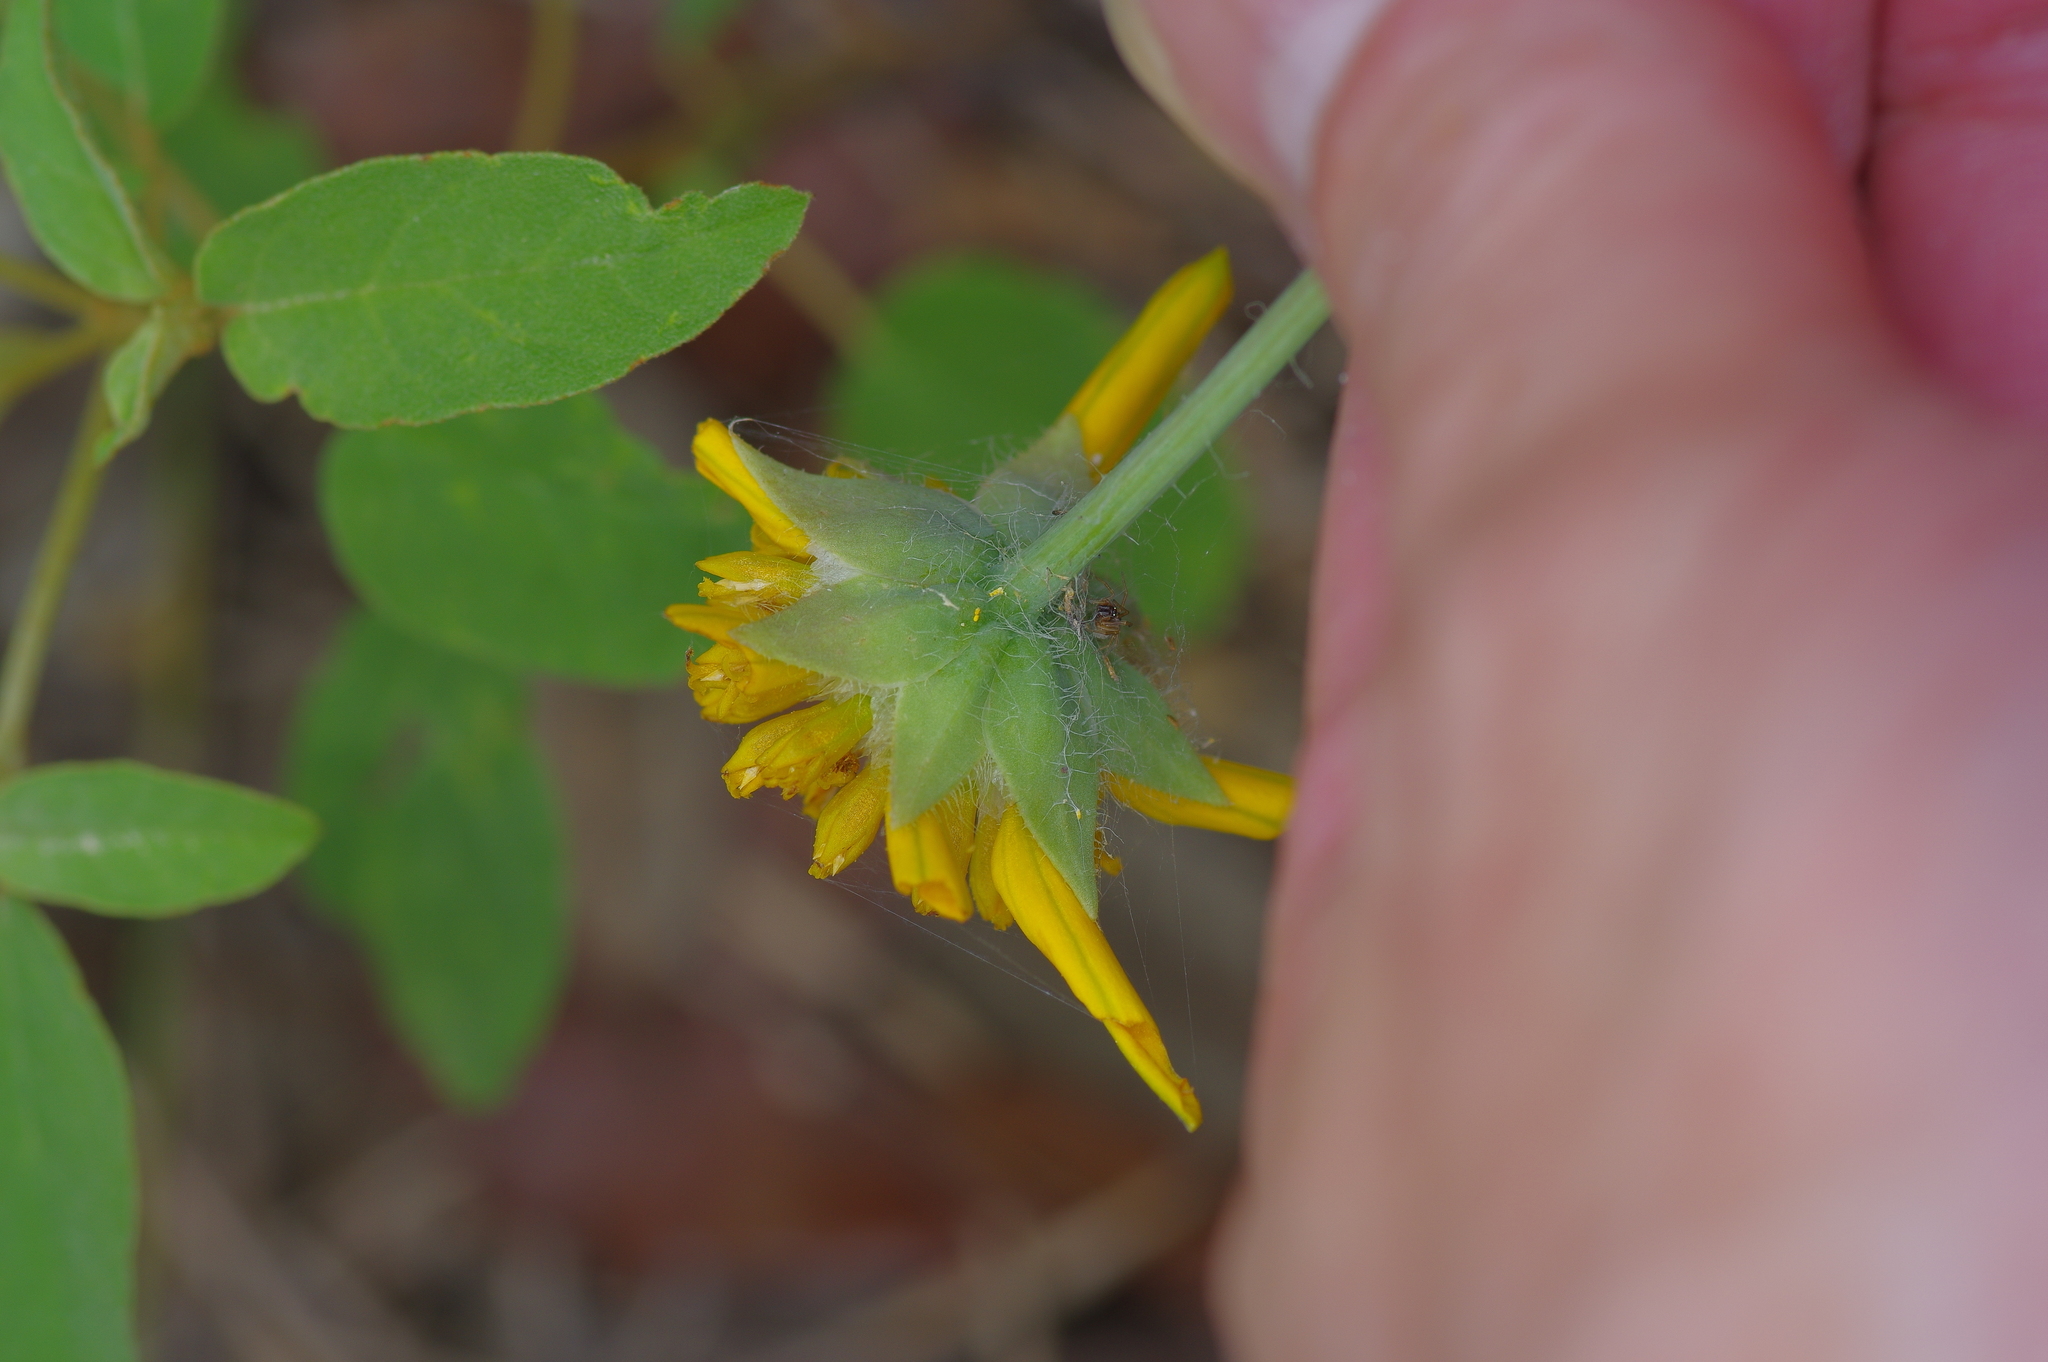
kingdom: Plantae
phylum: Tracheophyta
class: Magnoliopsida
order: Asterales
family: Asteraceae
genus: Amblyolepis
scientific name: Amblyolepis setigera
